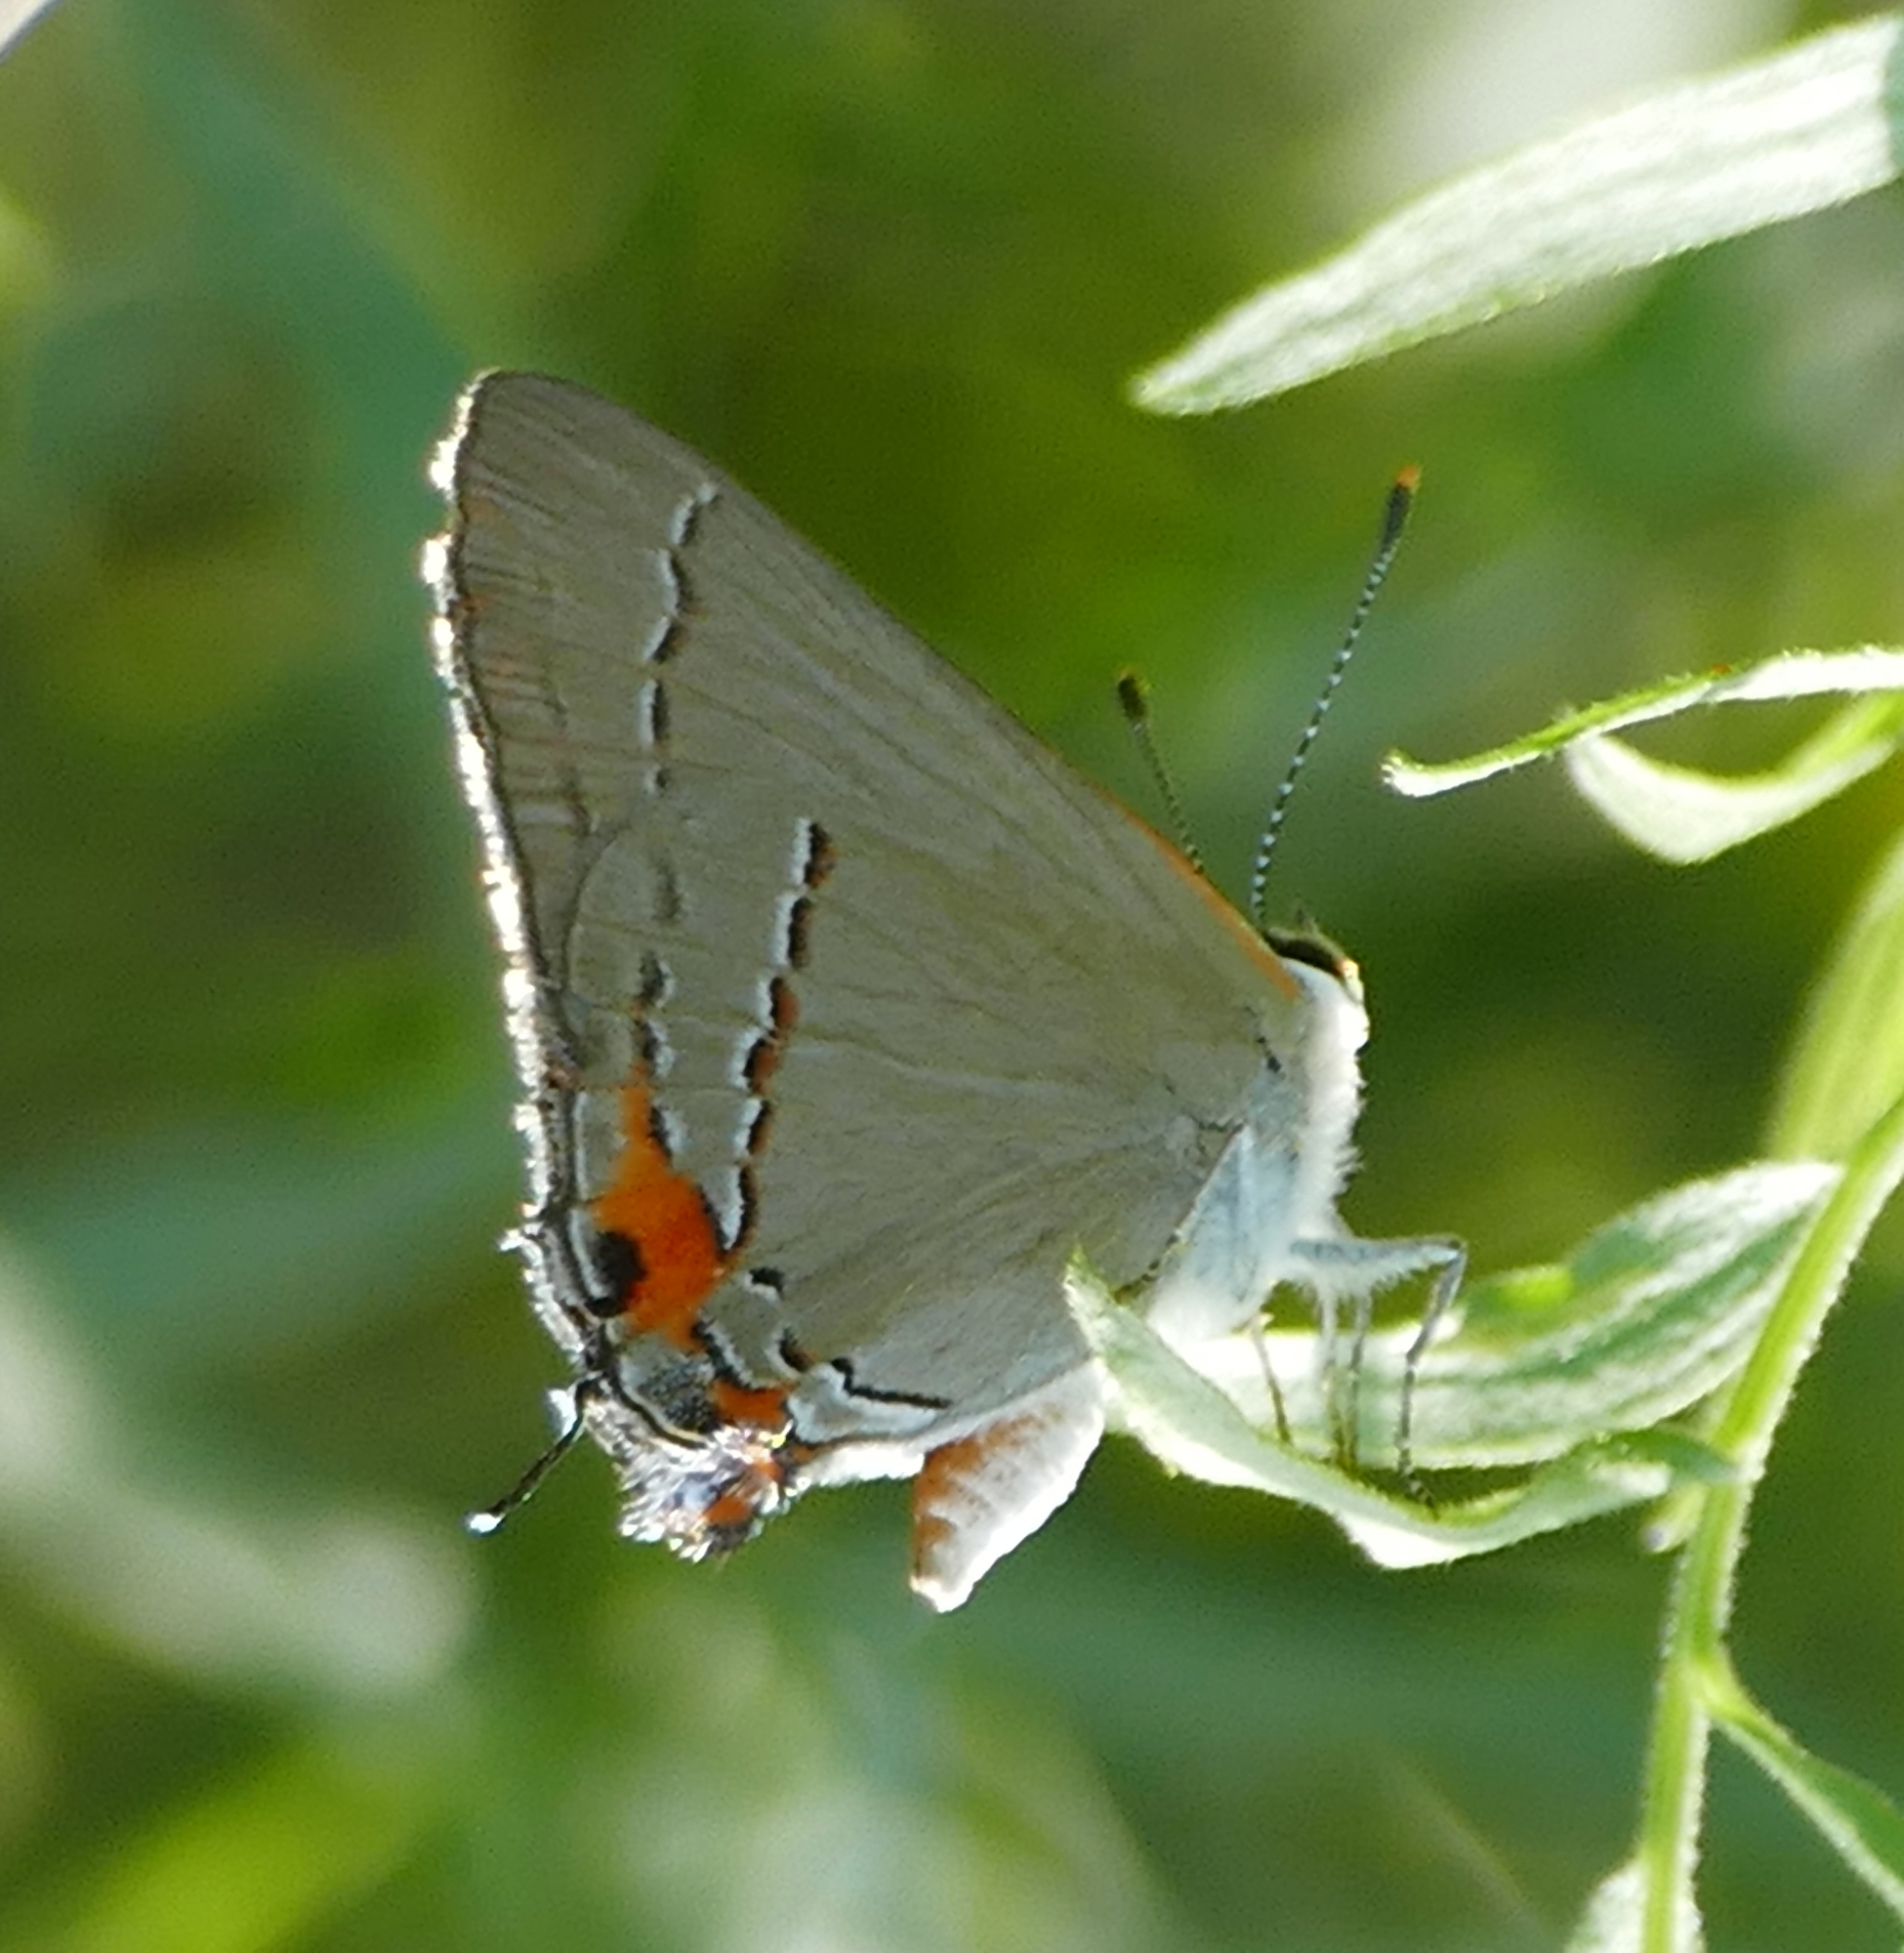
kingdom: Animalia
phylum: Arthropoda
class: Insecta
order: Lepidoptera
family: Lycaenidae
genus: Strymon
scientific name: Strymon melinus
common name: Gray hairstreak
